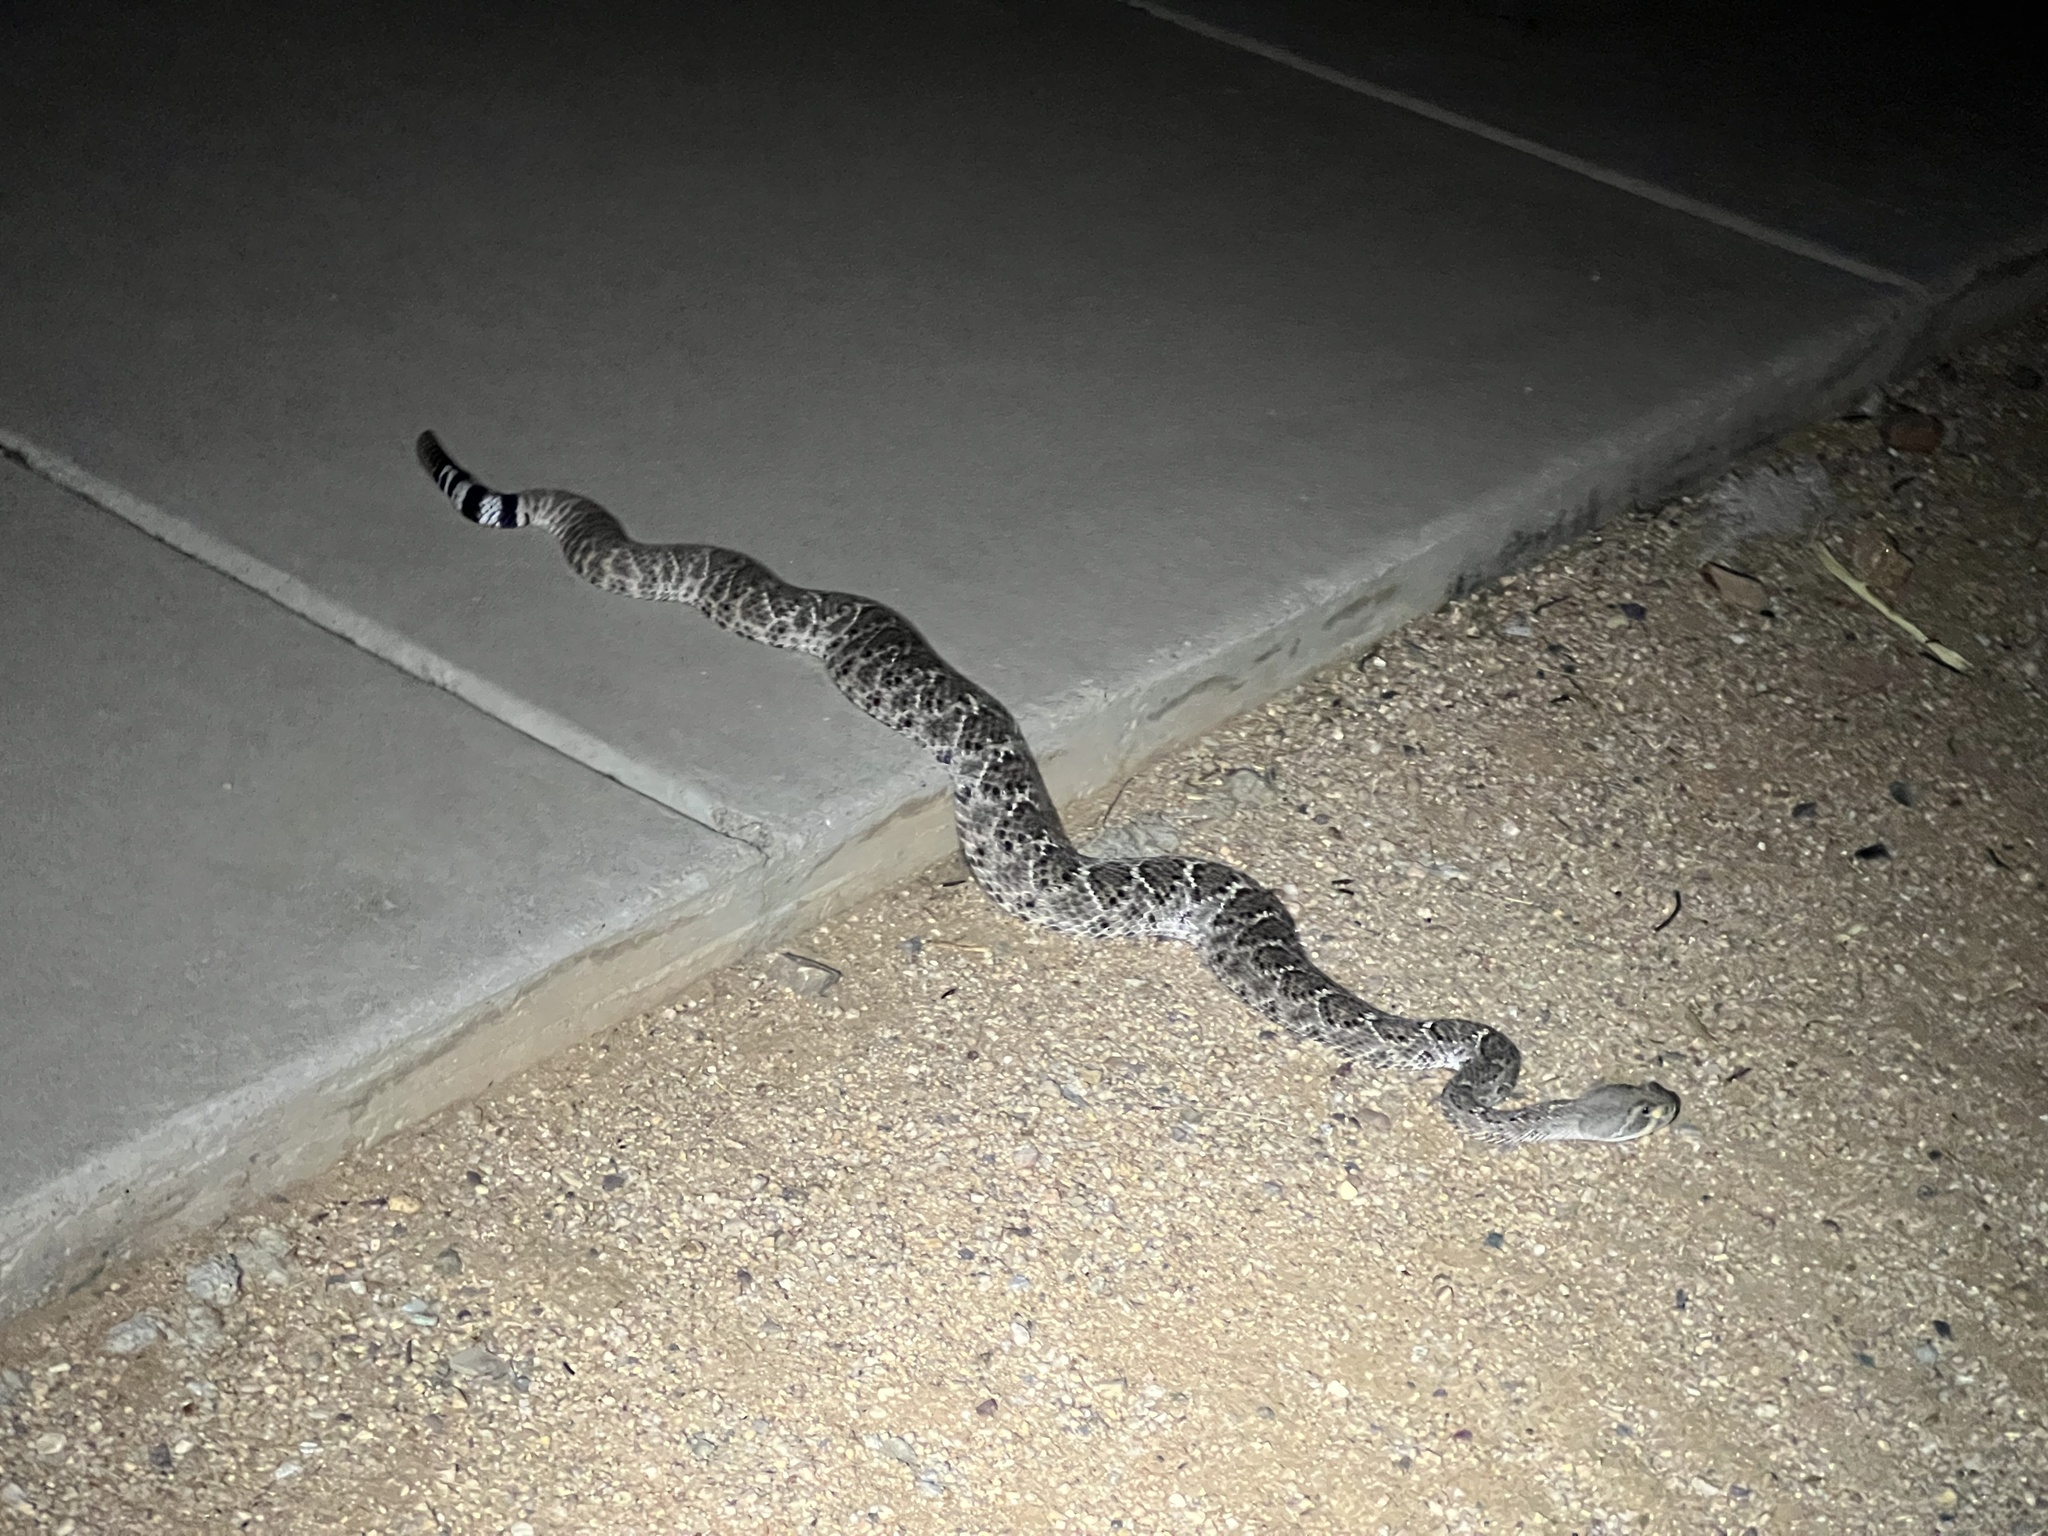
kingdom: Animalia
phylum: Chordata
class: Squamata
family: Viperidae
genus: Crotalus
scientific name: Crotalus atrox
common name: Western diamond-backed rattlesnake
